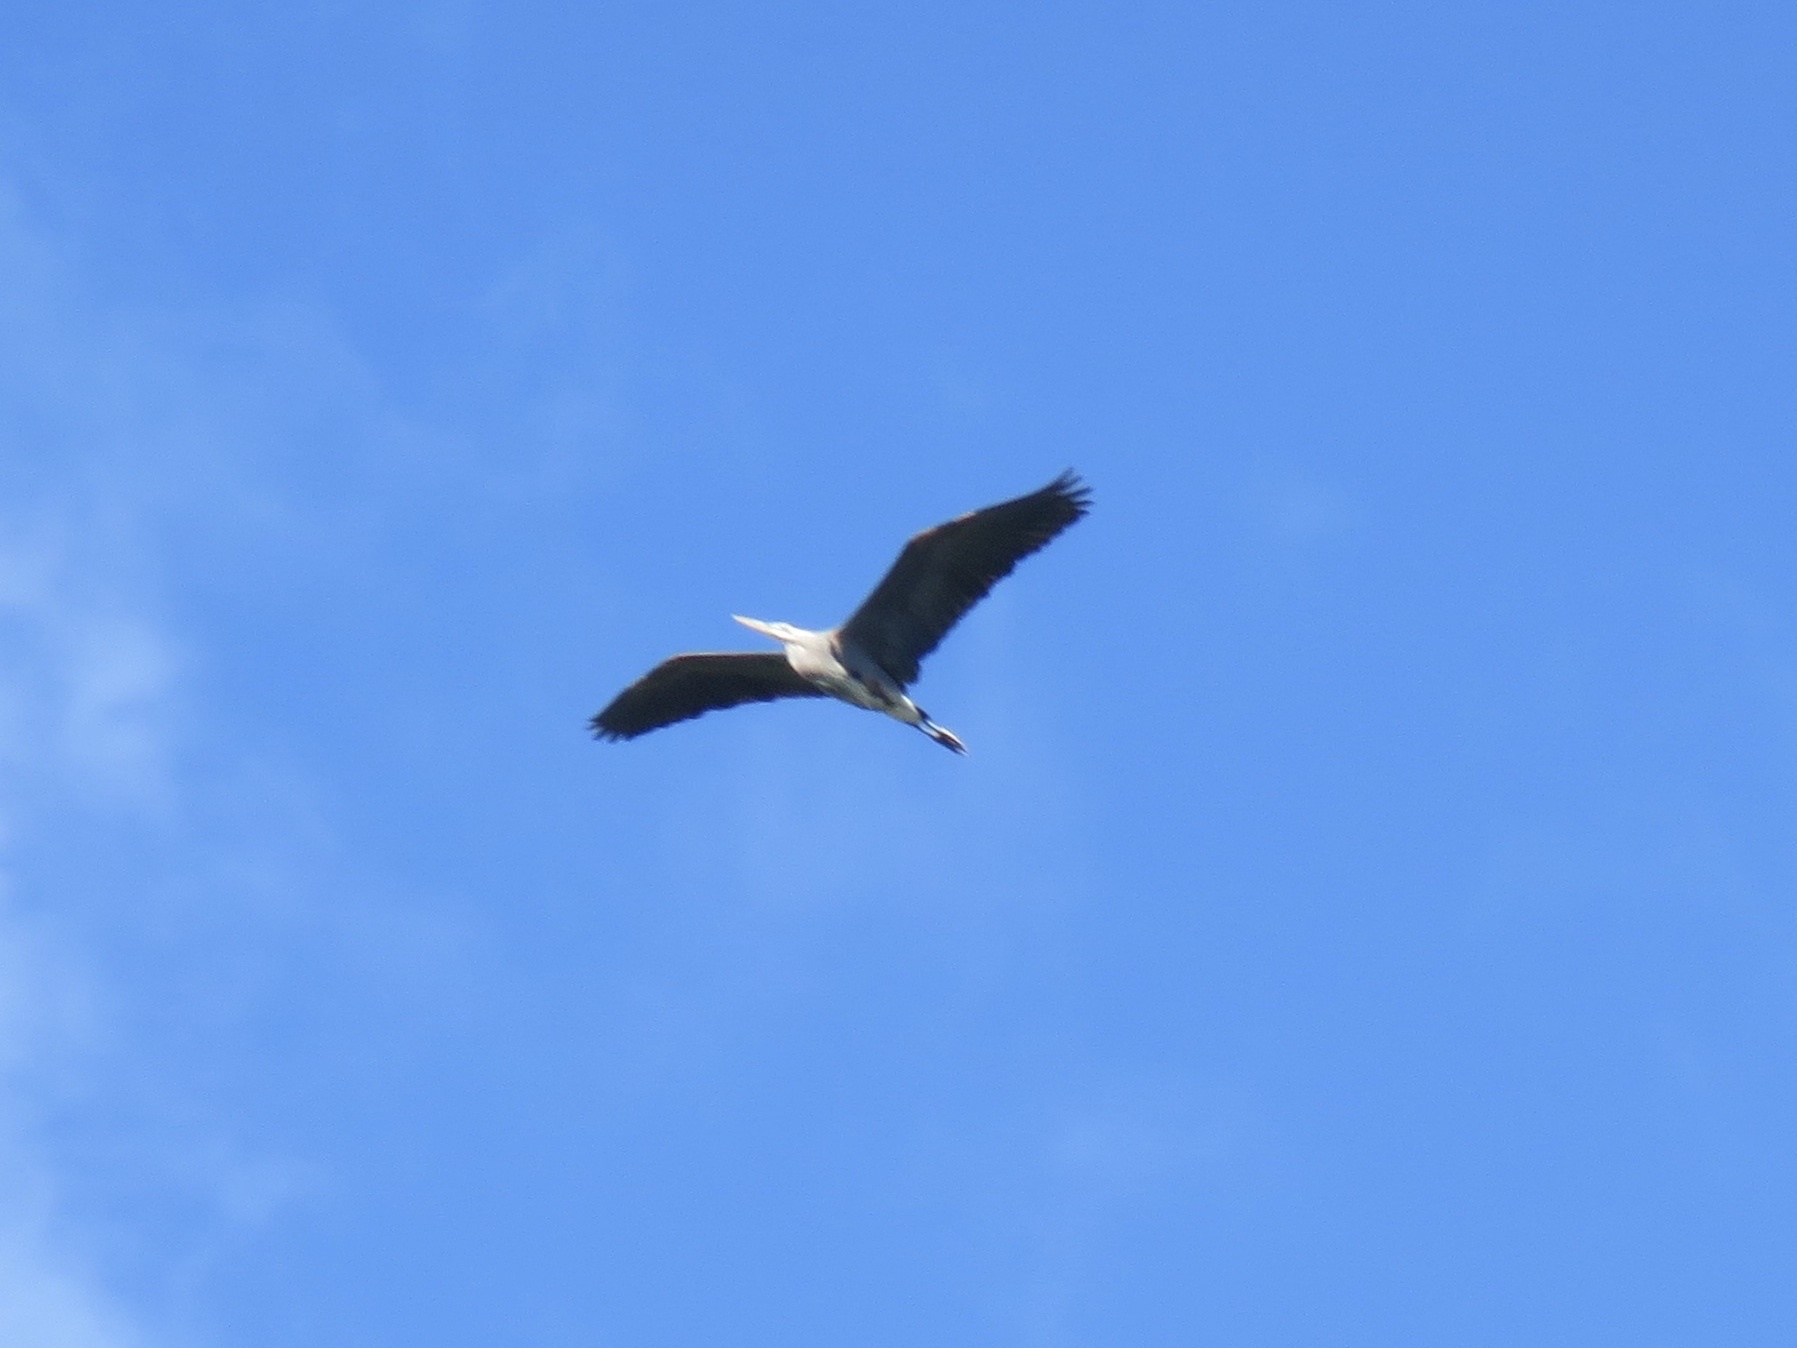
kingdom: Animalia
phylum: Chordata
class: Aves
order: Pelecaniformes
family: Ardeidae
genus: Ardea
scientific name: Ardea herodias
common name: Great blue heron
